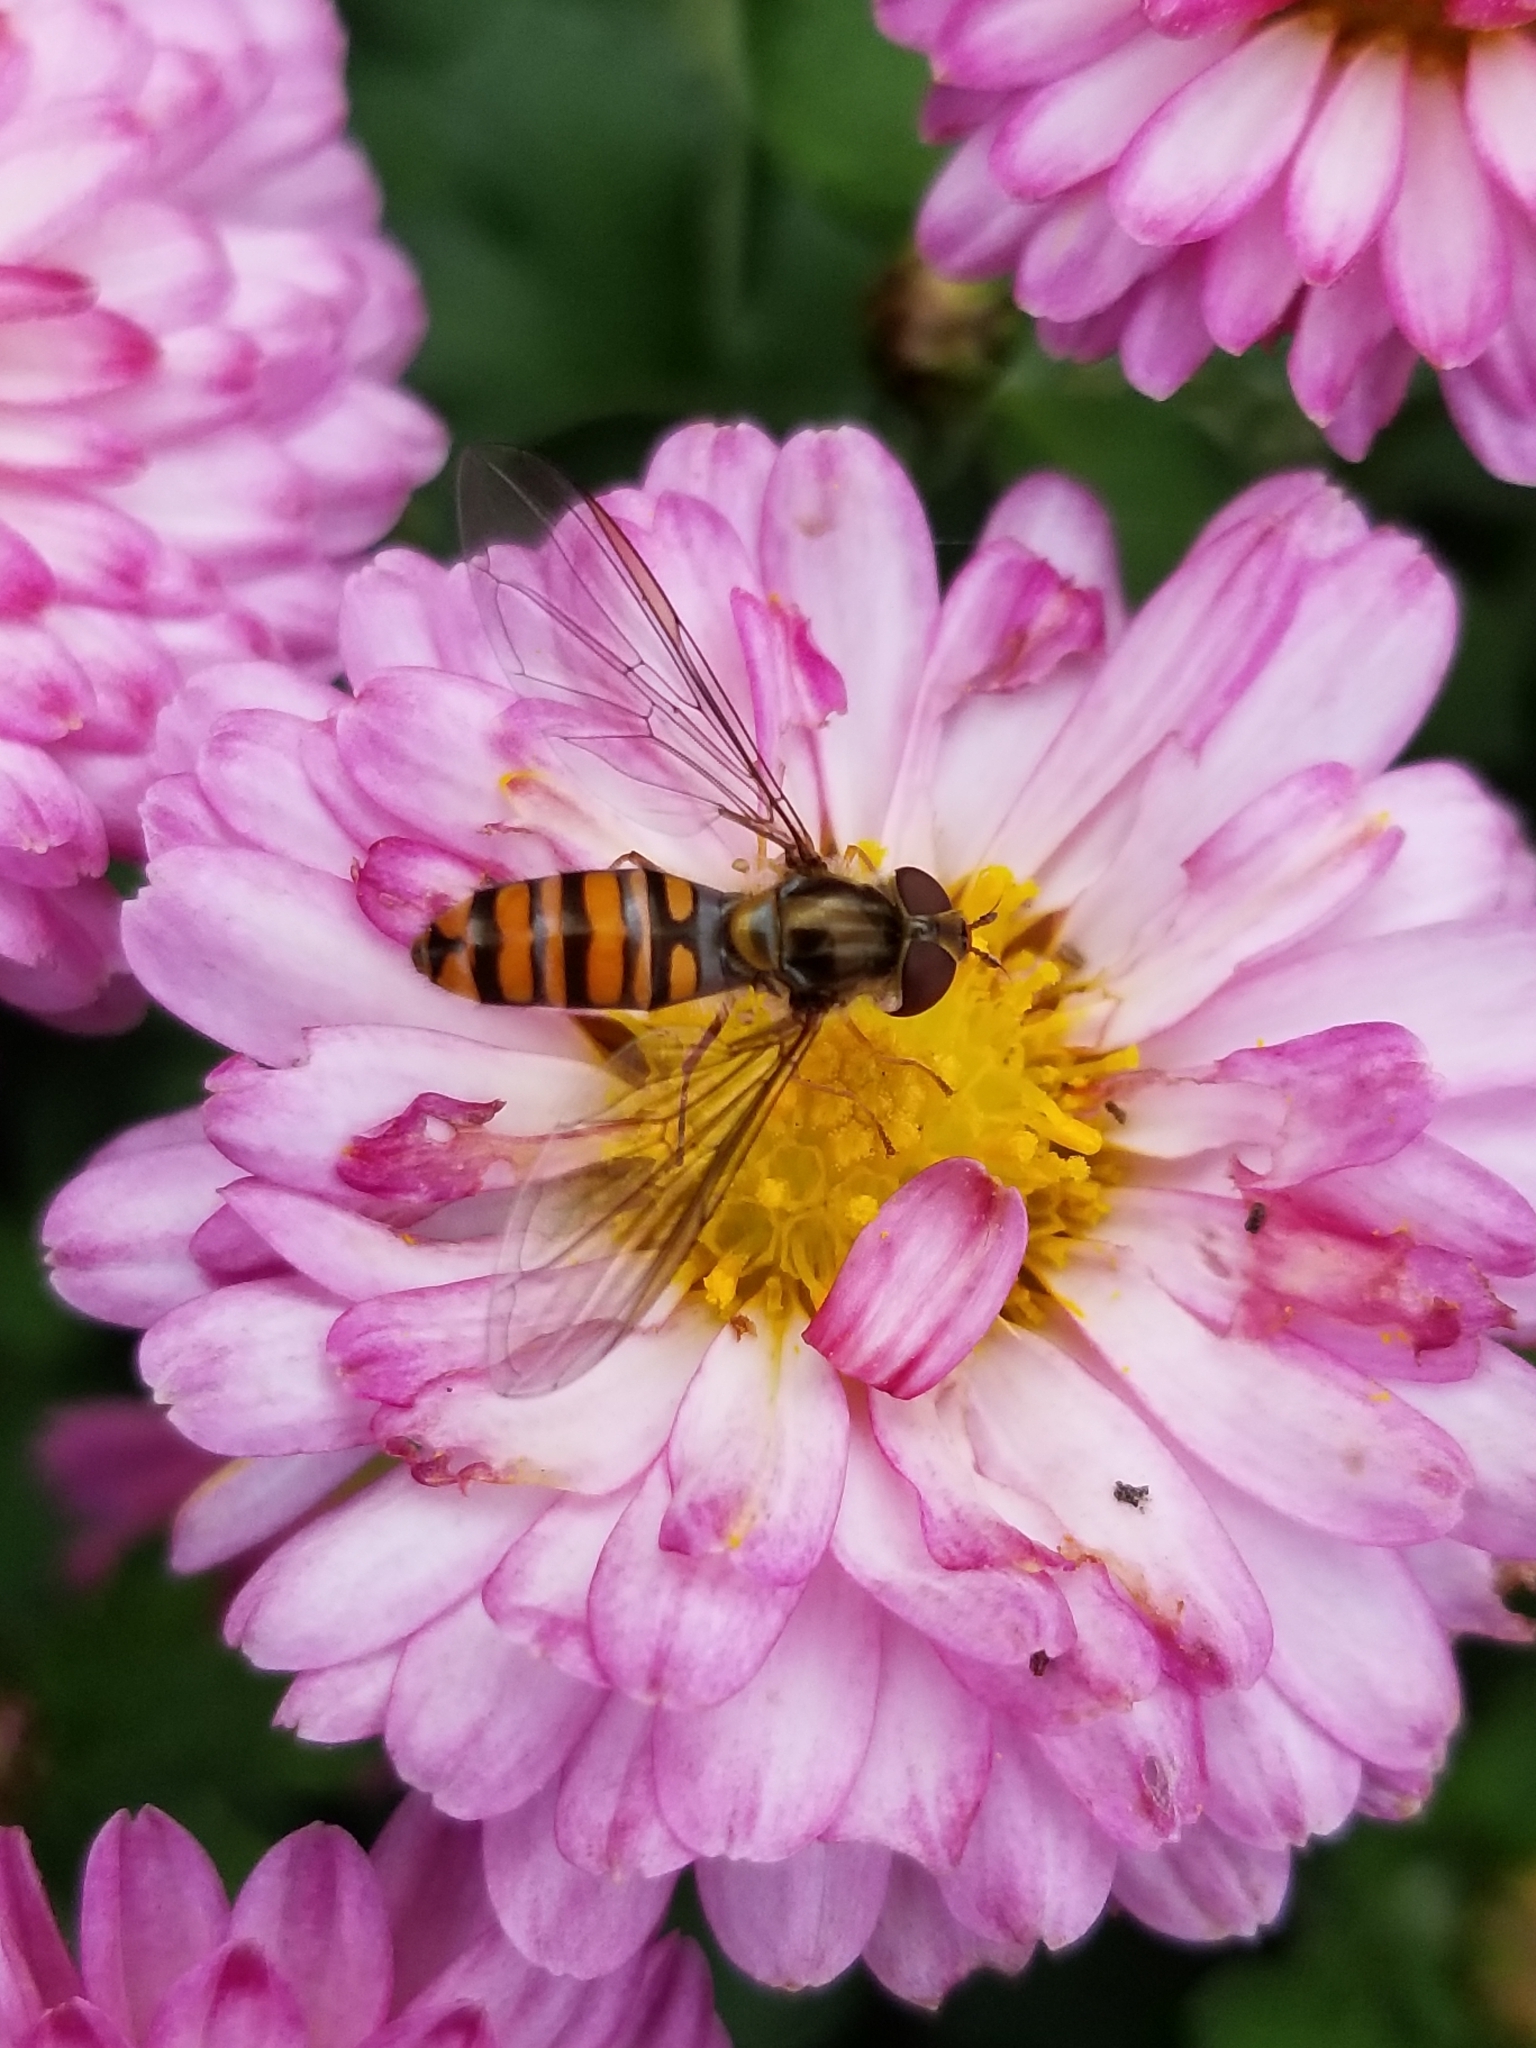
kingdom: Animalia
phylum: Arthropoda
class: Insecta
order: Diptera
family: Syrphidae
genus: Episyrphus
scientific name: Episyrphus balteatus
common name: Marmalade hoverfly
